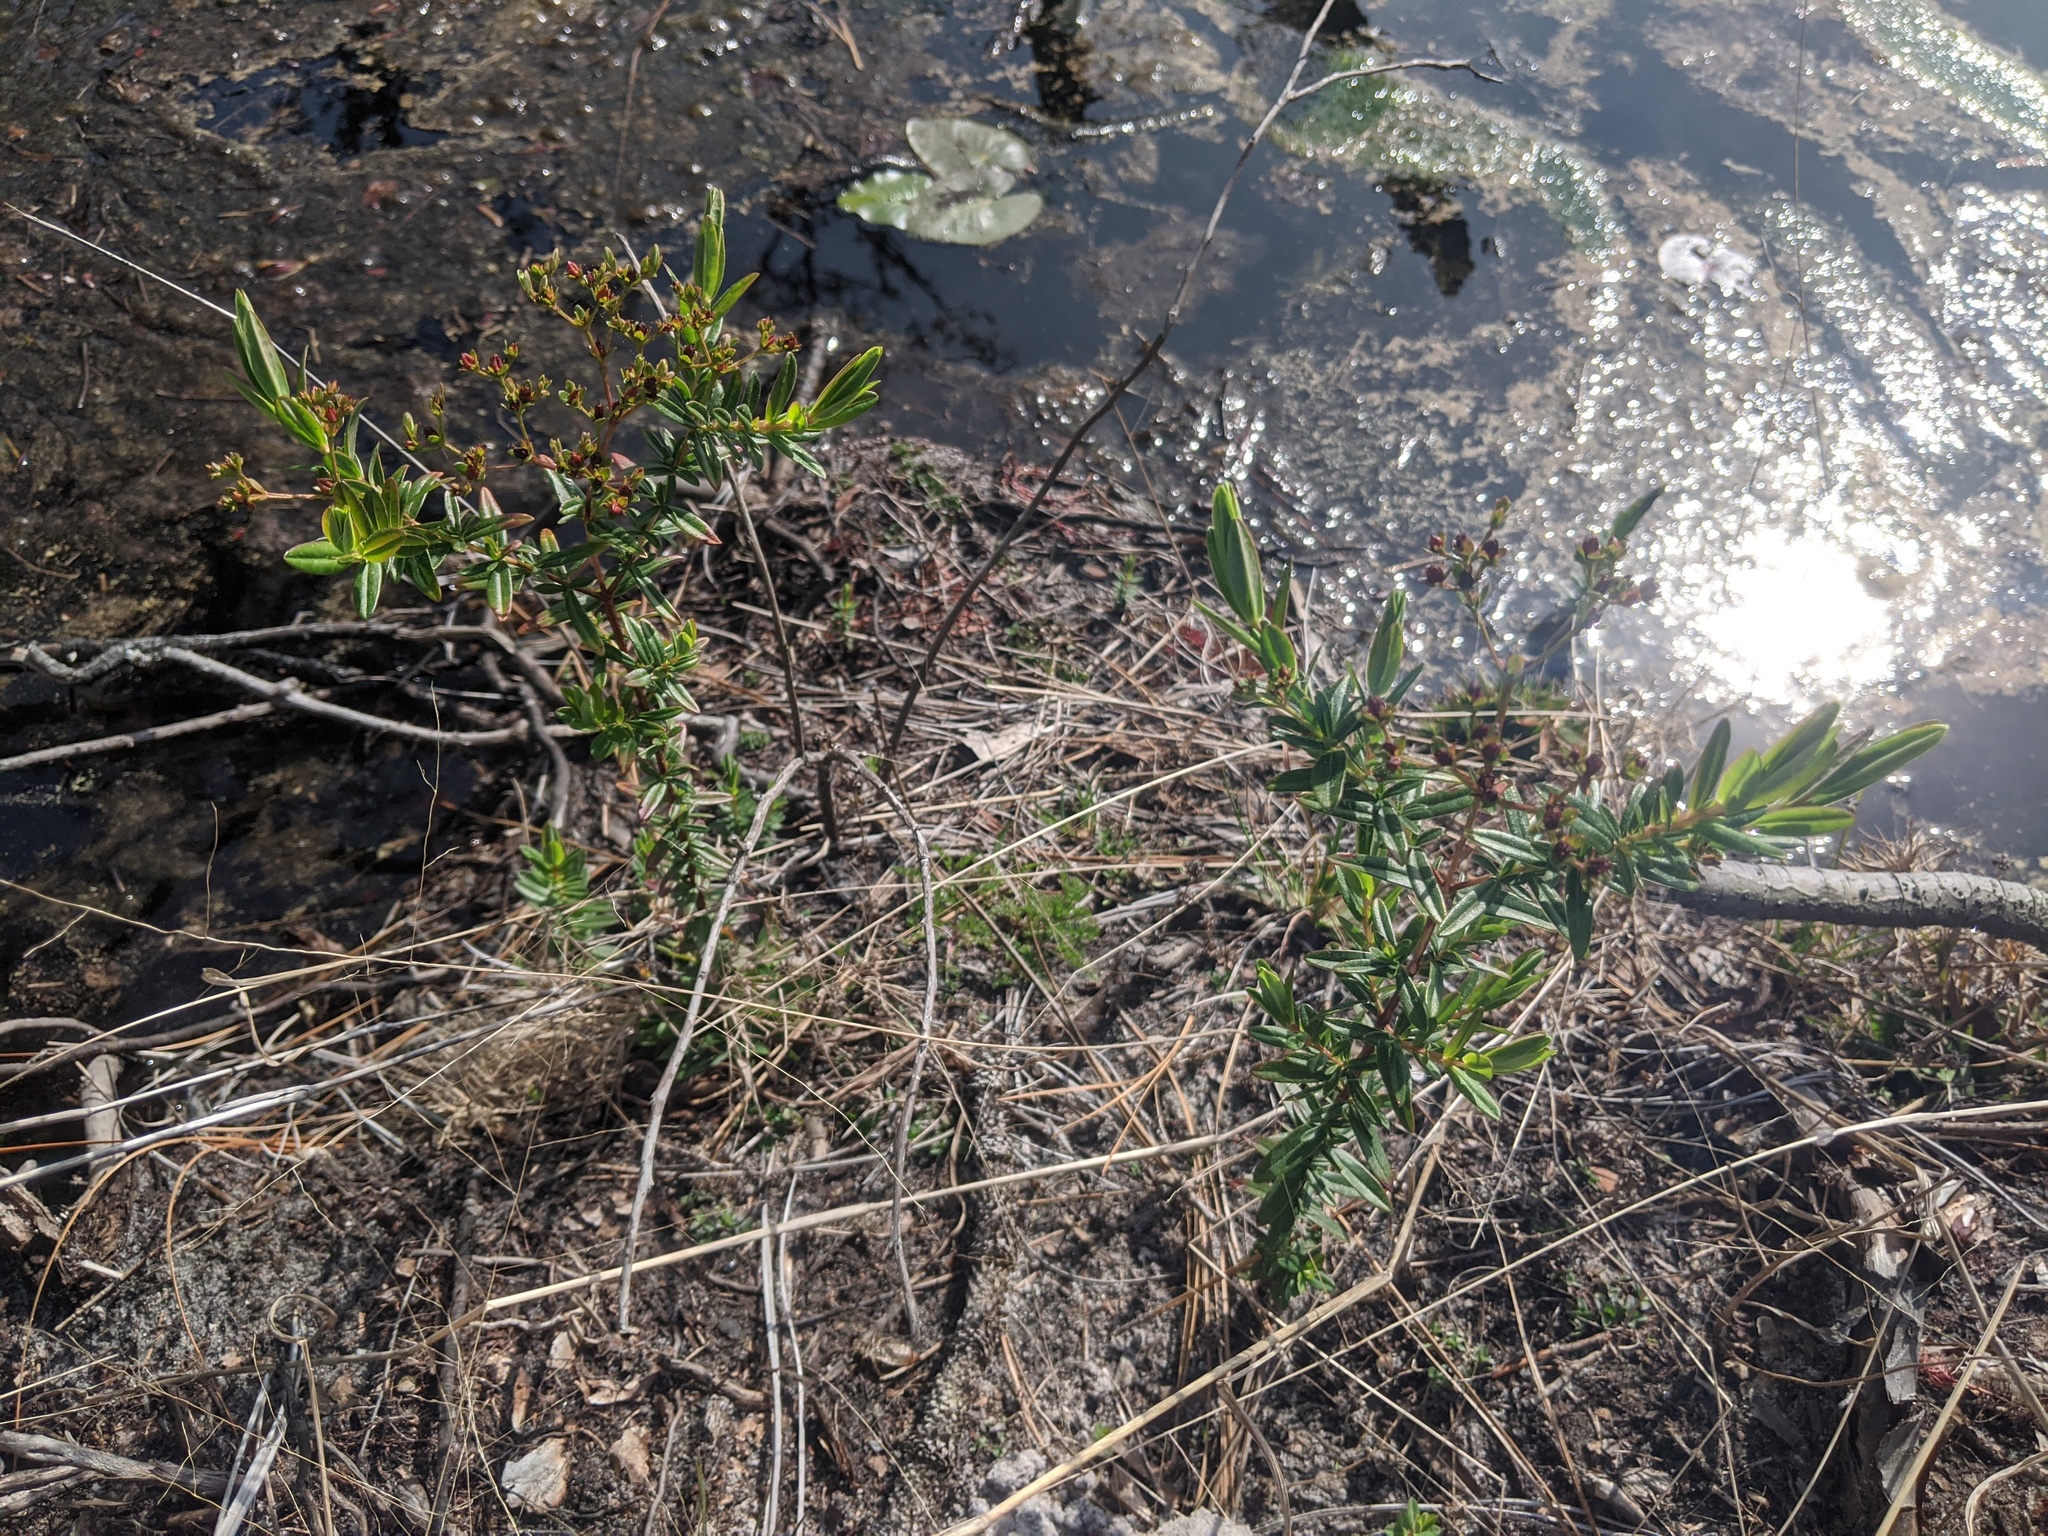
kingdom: Plantae
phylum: Tracheophyta
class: Magnoliopsida
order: Malpighiales
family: Hypericaceae
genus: Hypericum
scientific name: Hypericum cistifolium
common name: Round-pod st. john's-wort
